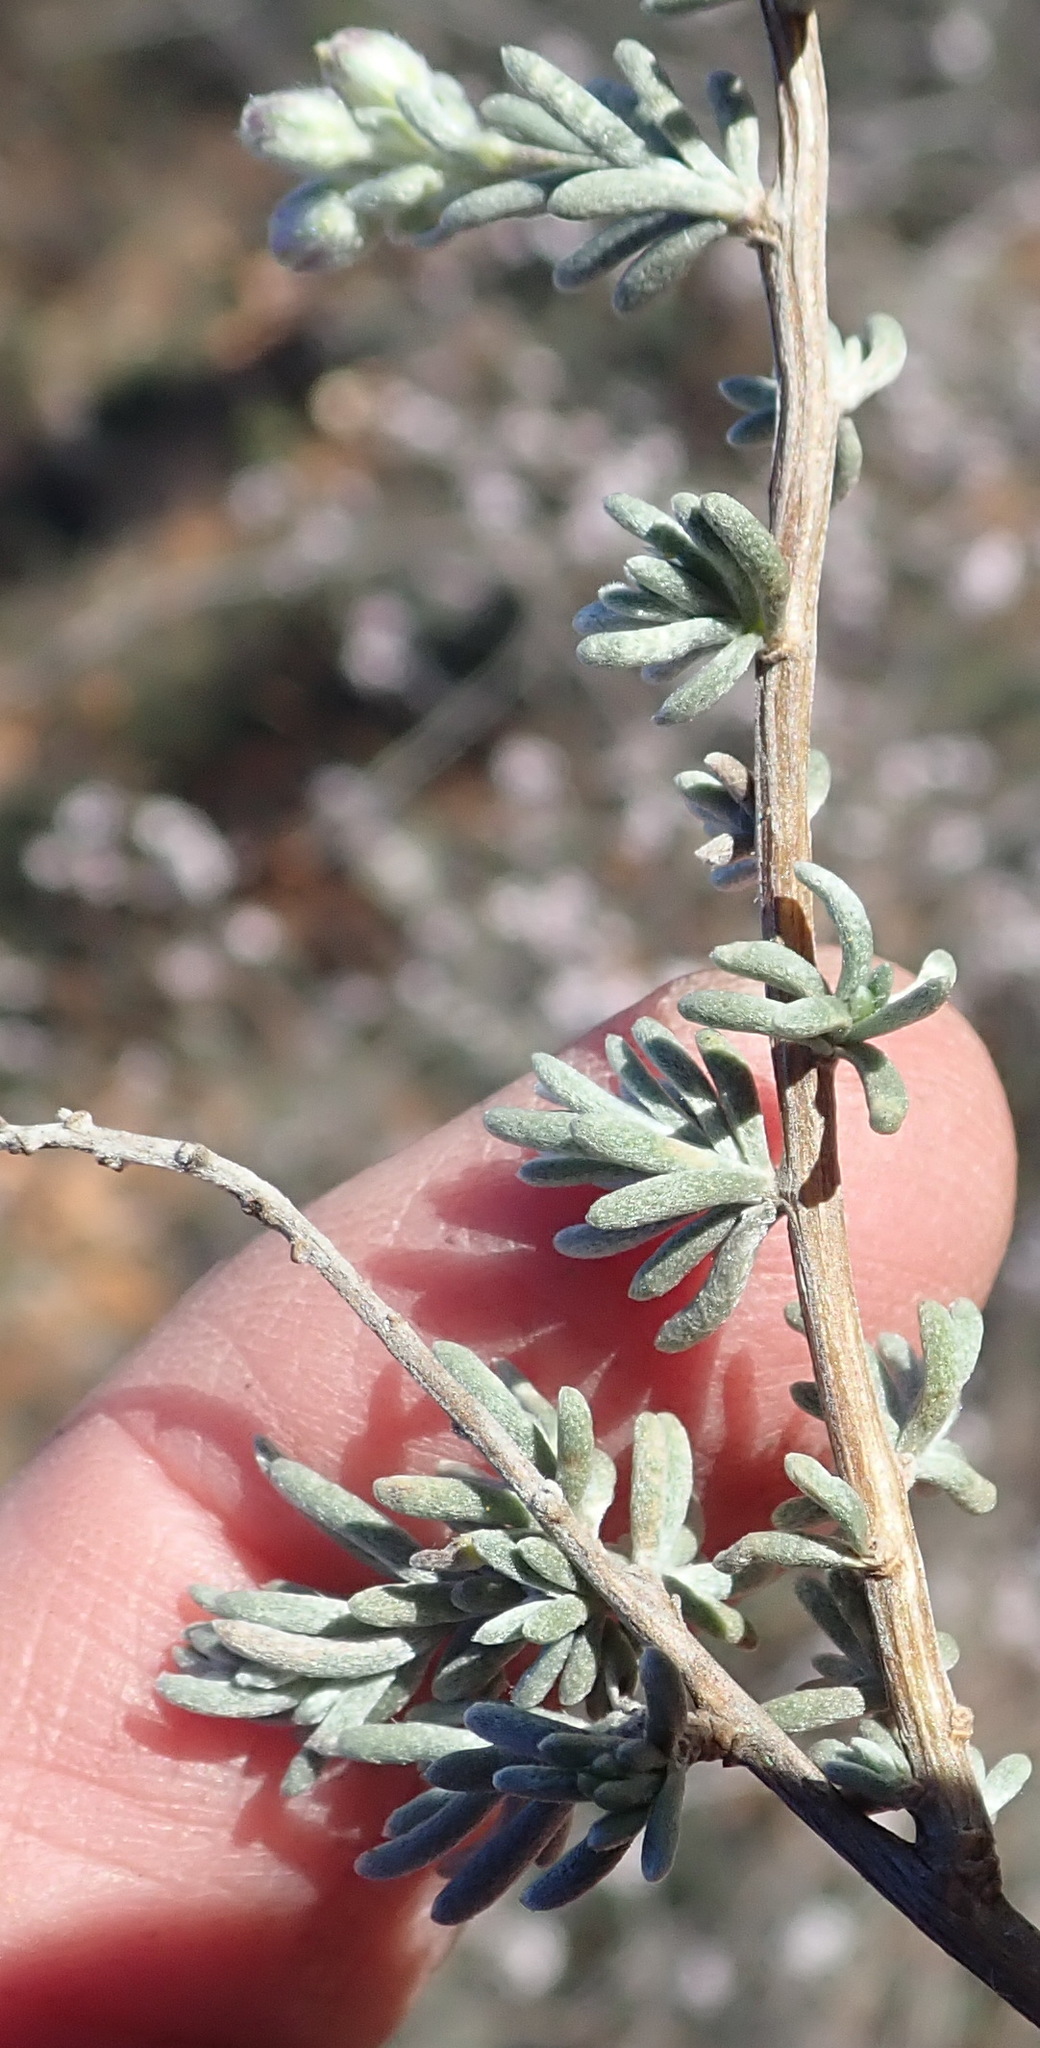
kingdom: Plantae
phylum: Tracheophyta
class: Magnoliopsida
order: Asterales
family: Asteraceae
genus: Eriocephalus
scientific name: Eriocephalus tenuipes
